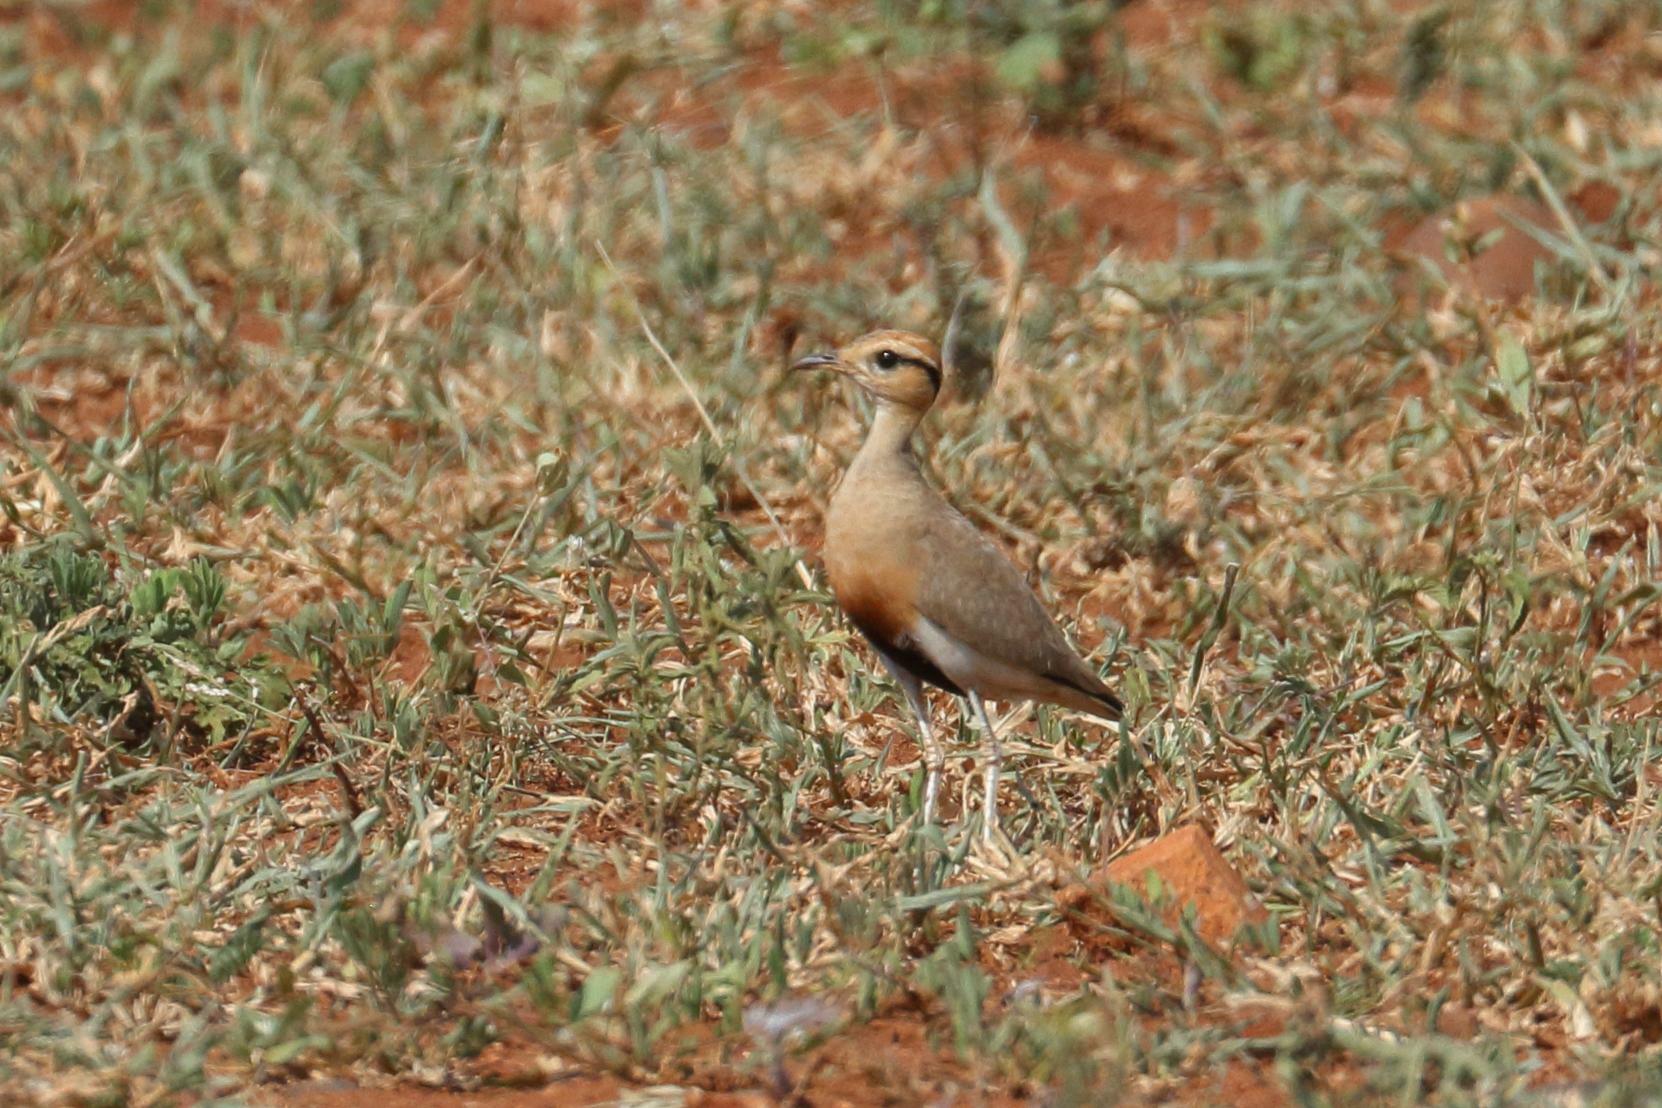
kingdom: Animalia
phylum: Chordata
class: Aves
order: Charadriiformes
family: Glareolidae
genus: Cursorius
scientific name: Cursorius temminckii
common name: Temminck's courser
